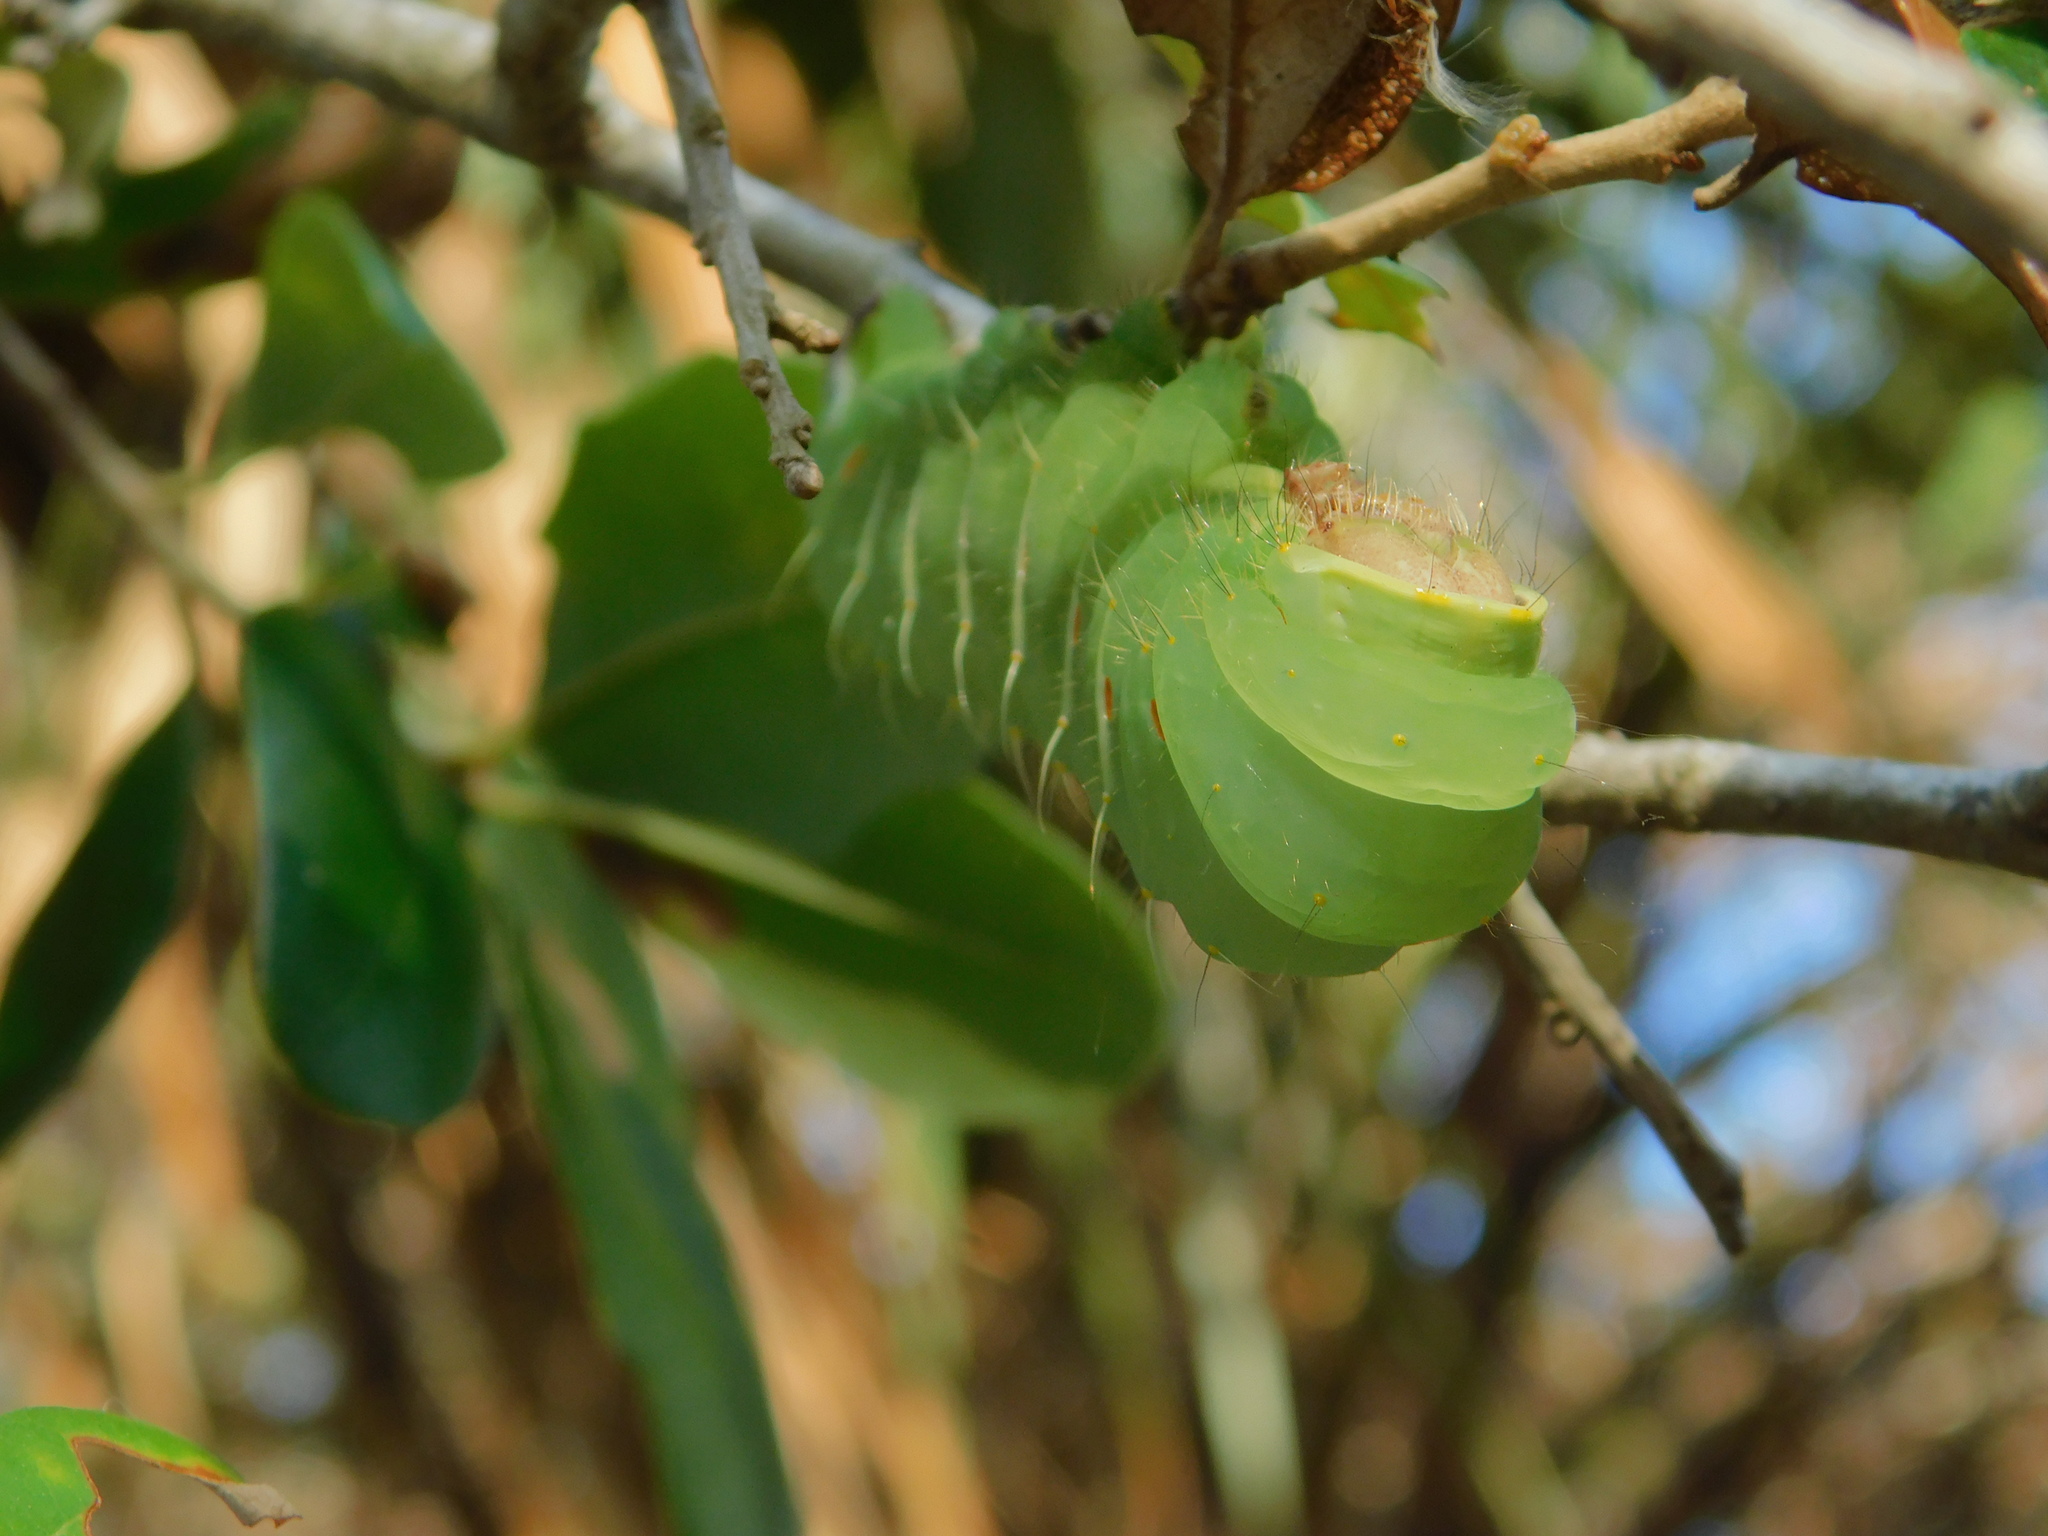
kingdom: Animalia
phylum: Arthropoda
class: Insecta
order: Lepidoptera
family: Saturniidae
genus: Antheraea
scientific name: Antheraea polyphemus
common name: Polyphemus moth
